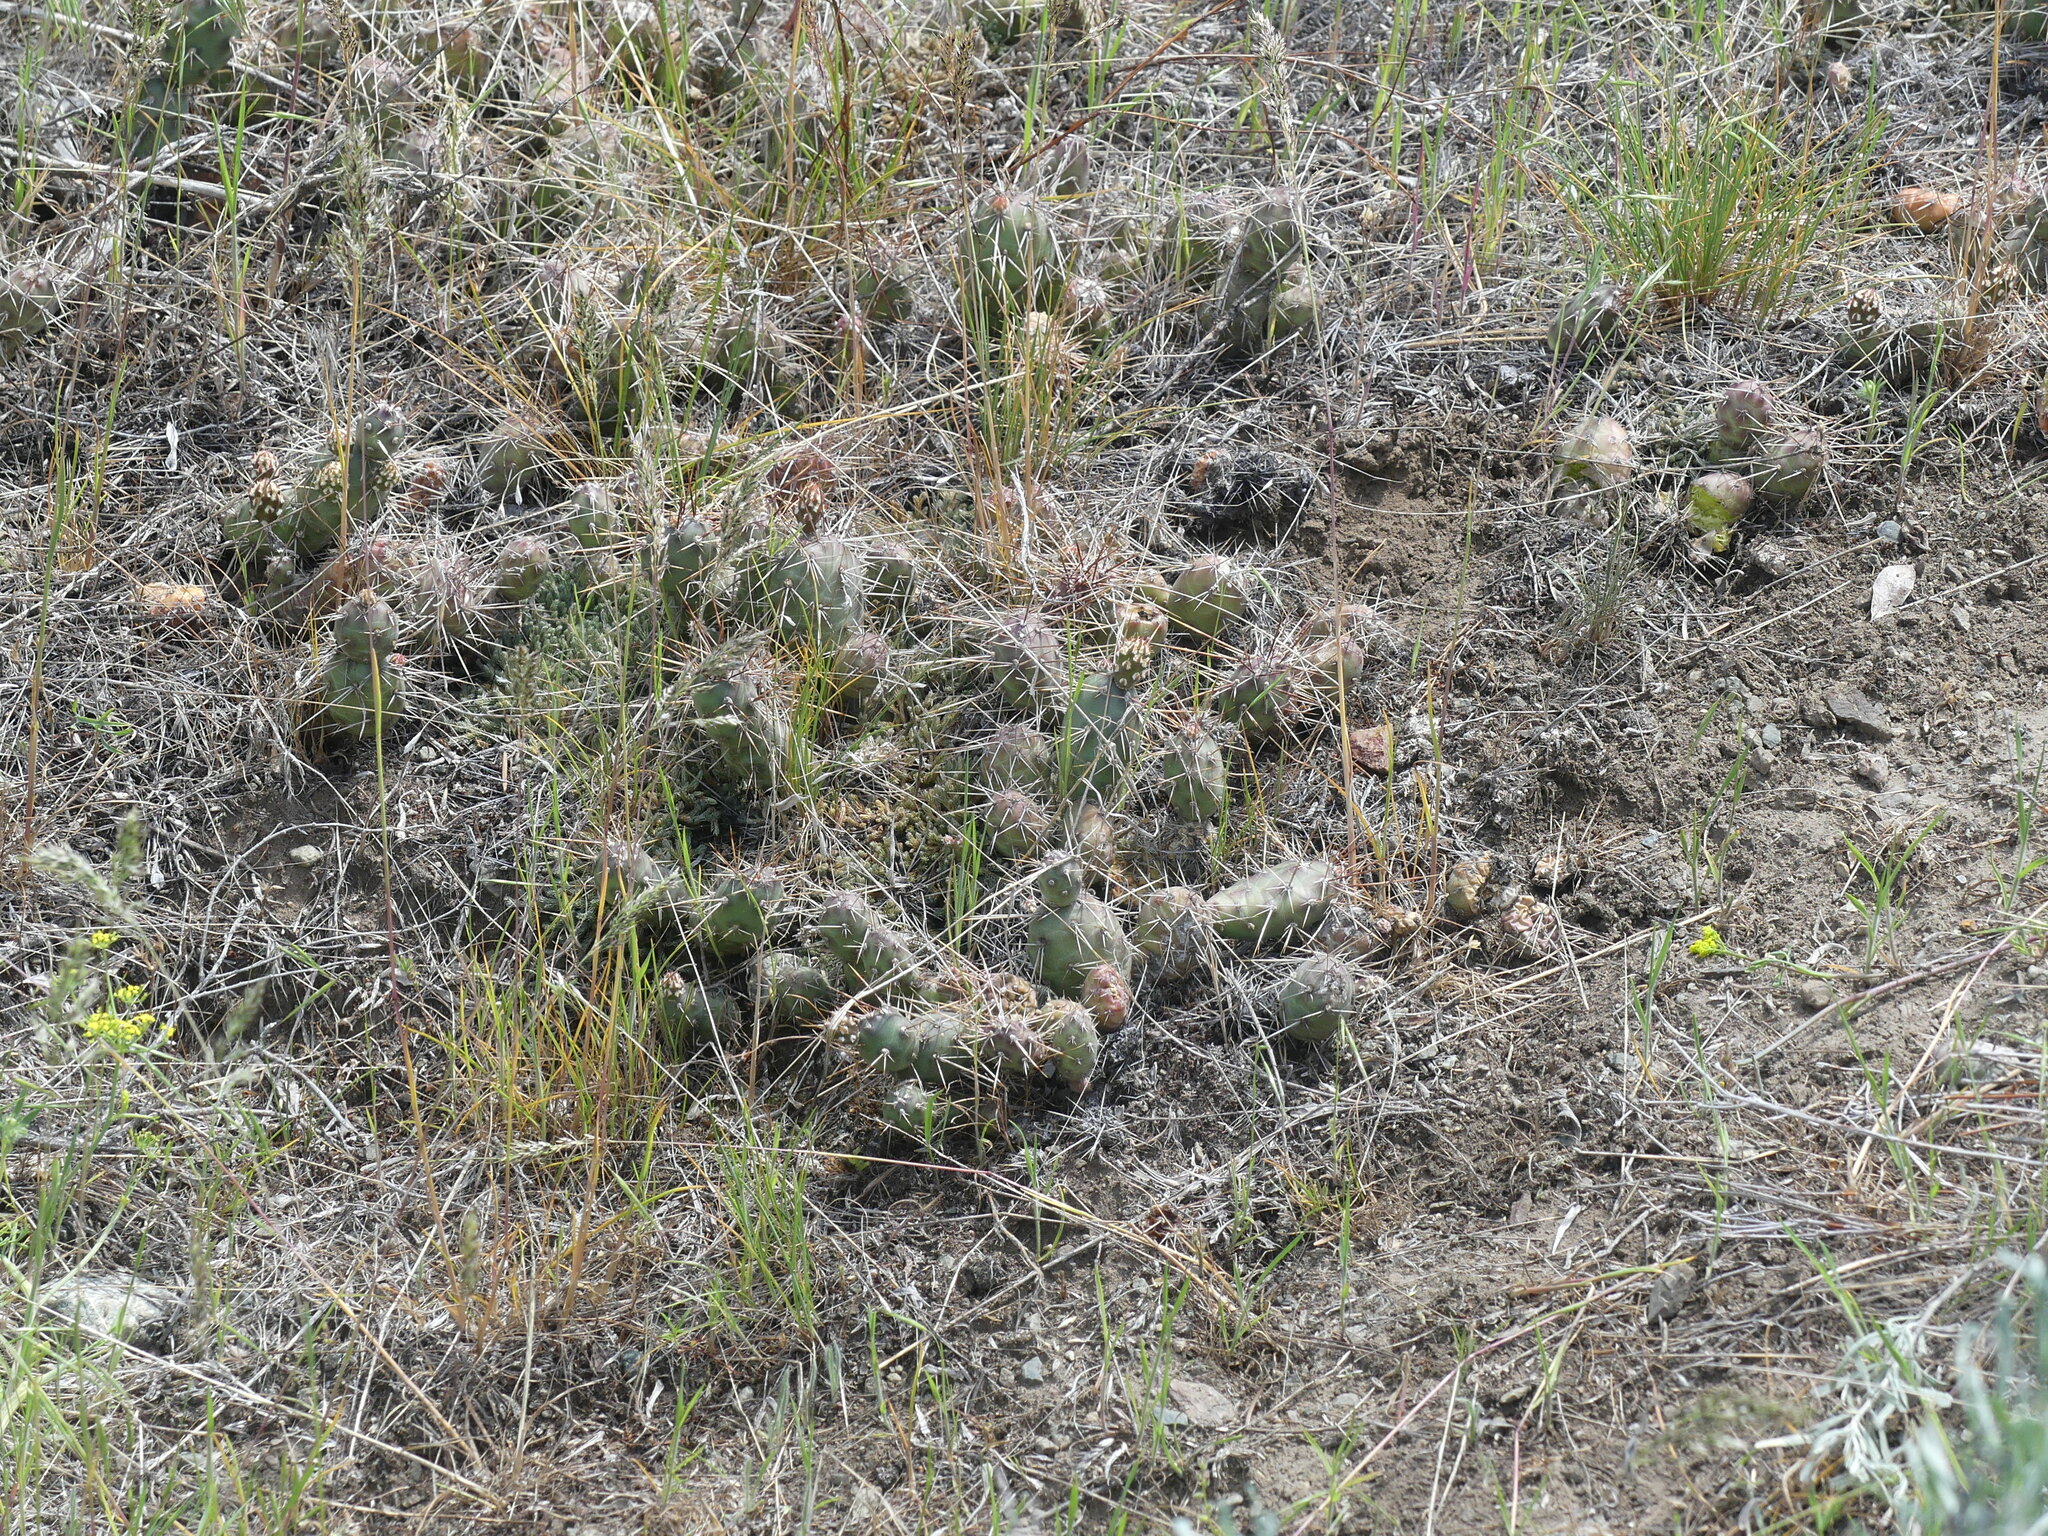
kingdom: Plantae
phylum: Tracheophyta
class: Magnoliopsida
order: Caryophyllales
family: Cactaceae
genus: Opuntia
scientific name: Opuntia fragilis
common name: Brittle cactus
